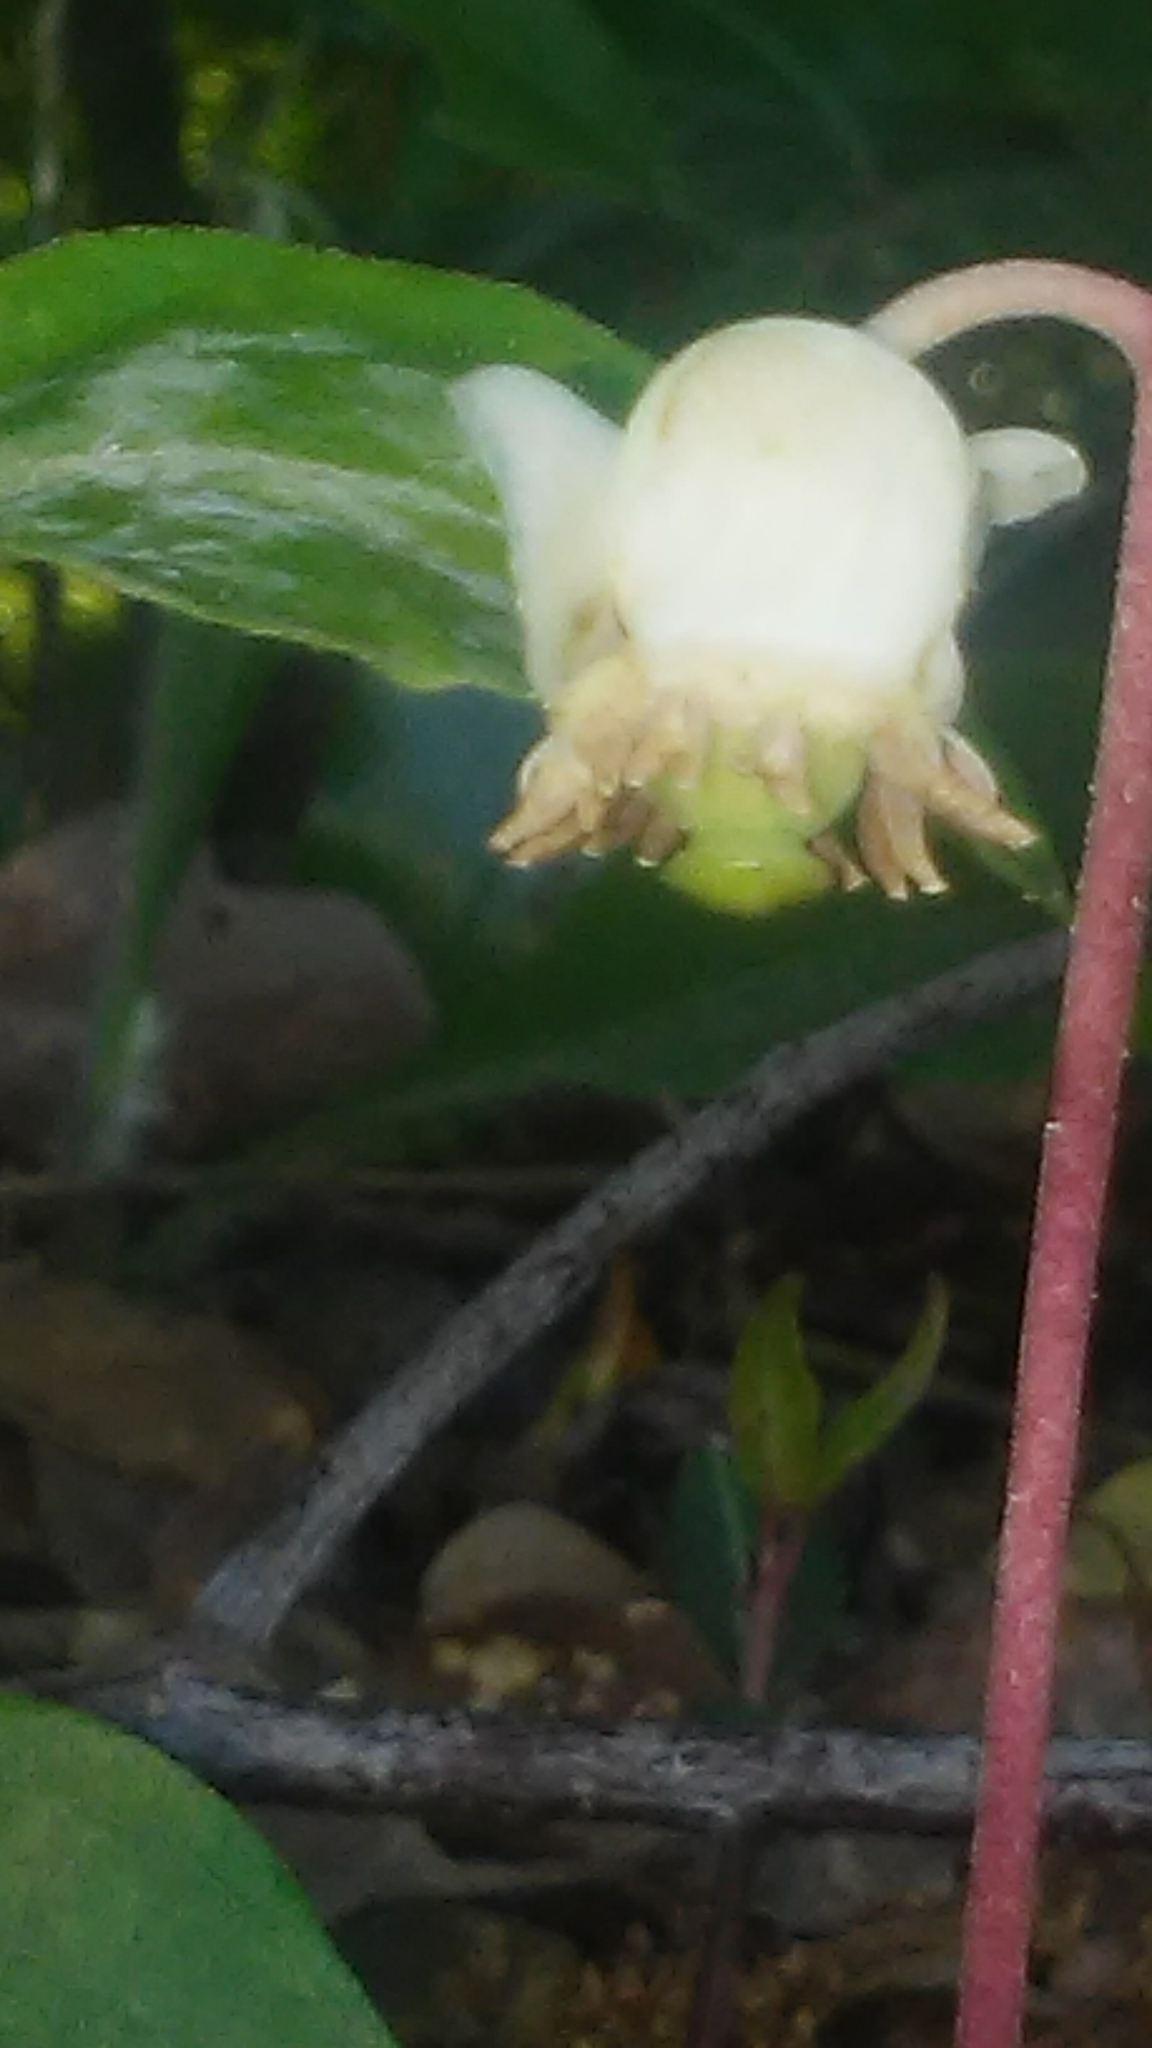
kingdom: Plantae
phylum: Tracheophyta
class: Magnoliopsida
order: Ericales
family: Ericaceae
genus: Chimaphila
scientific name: Chimaphila maculata
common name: Spotted pipsissewa
